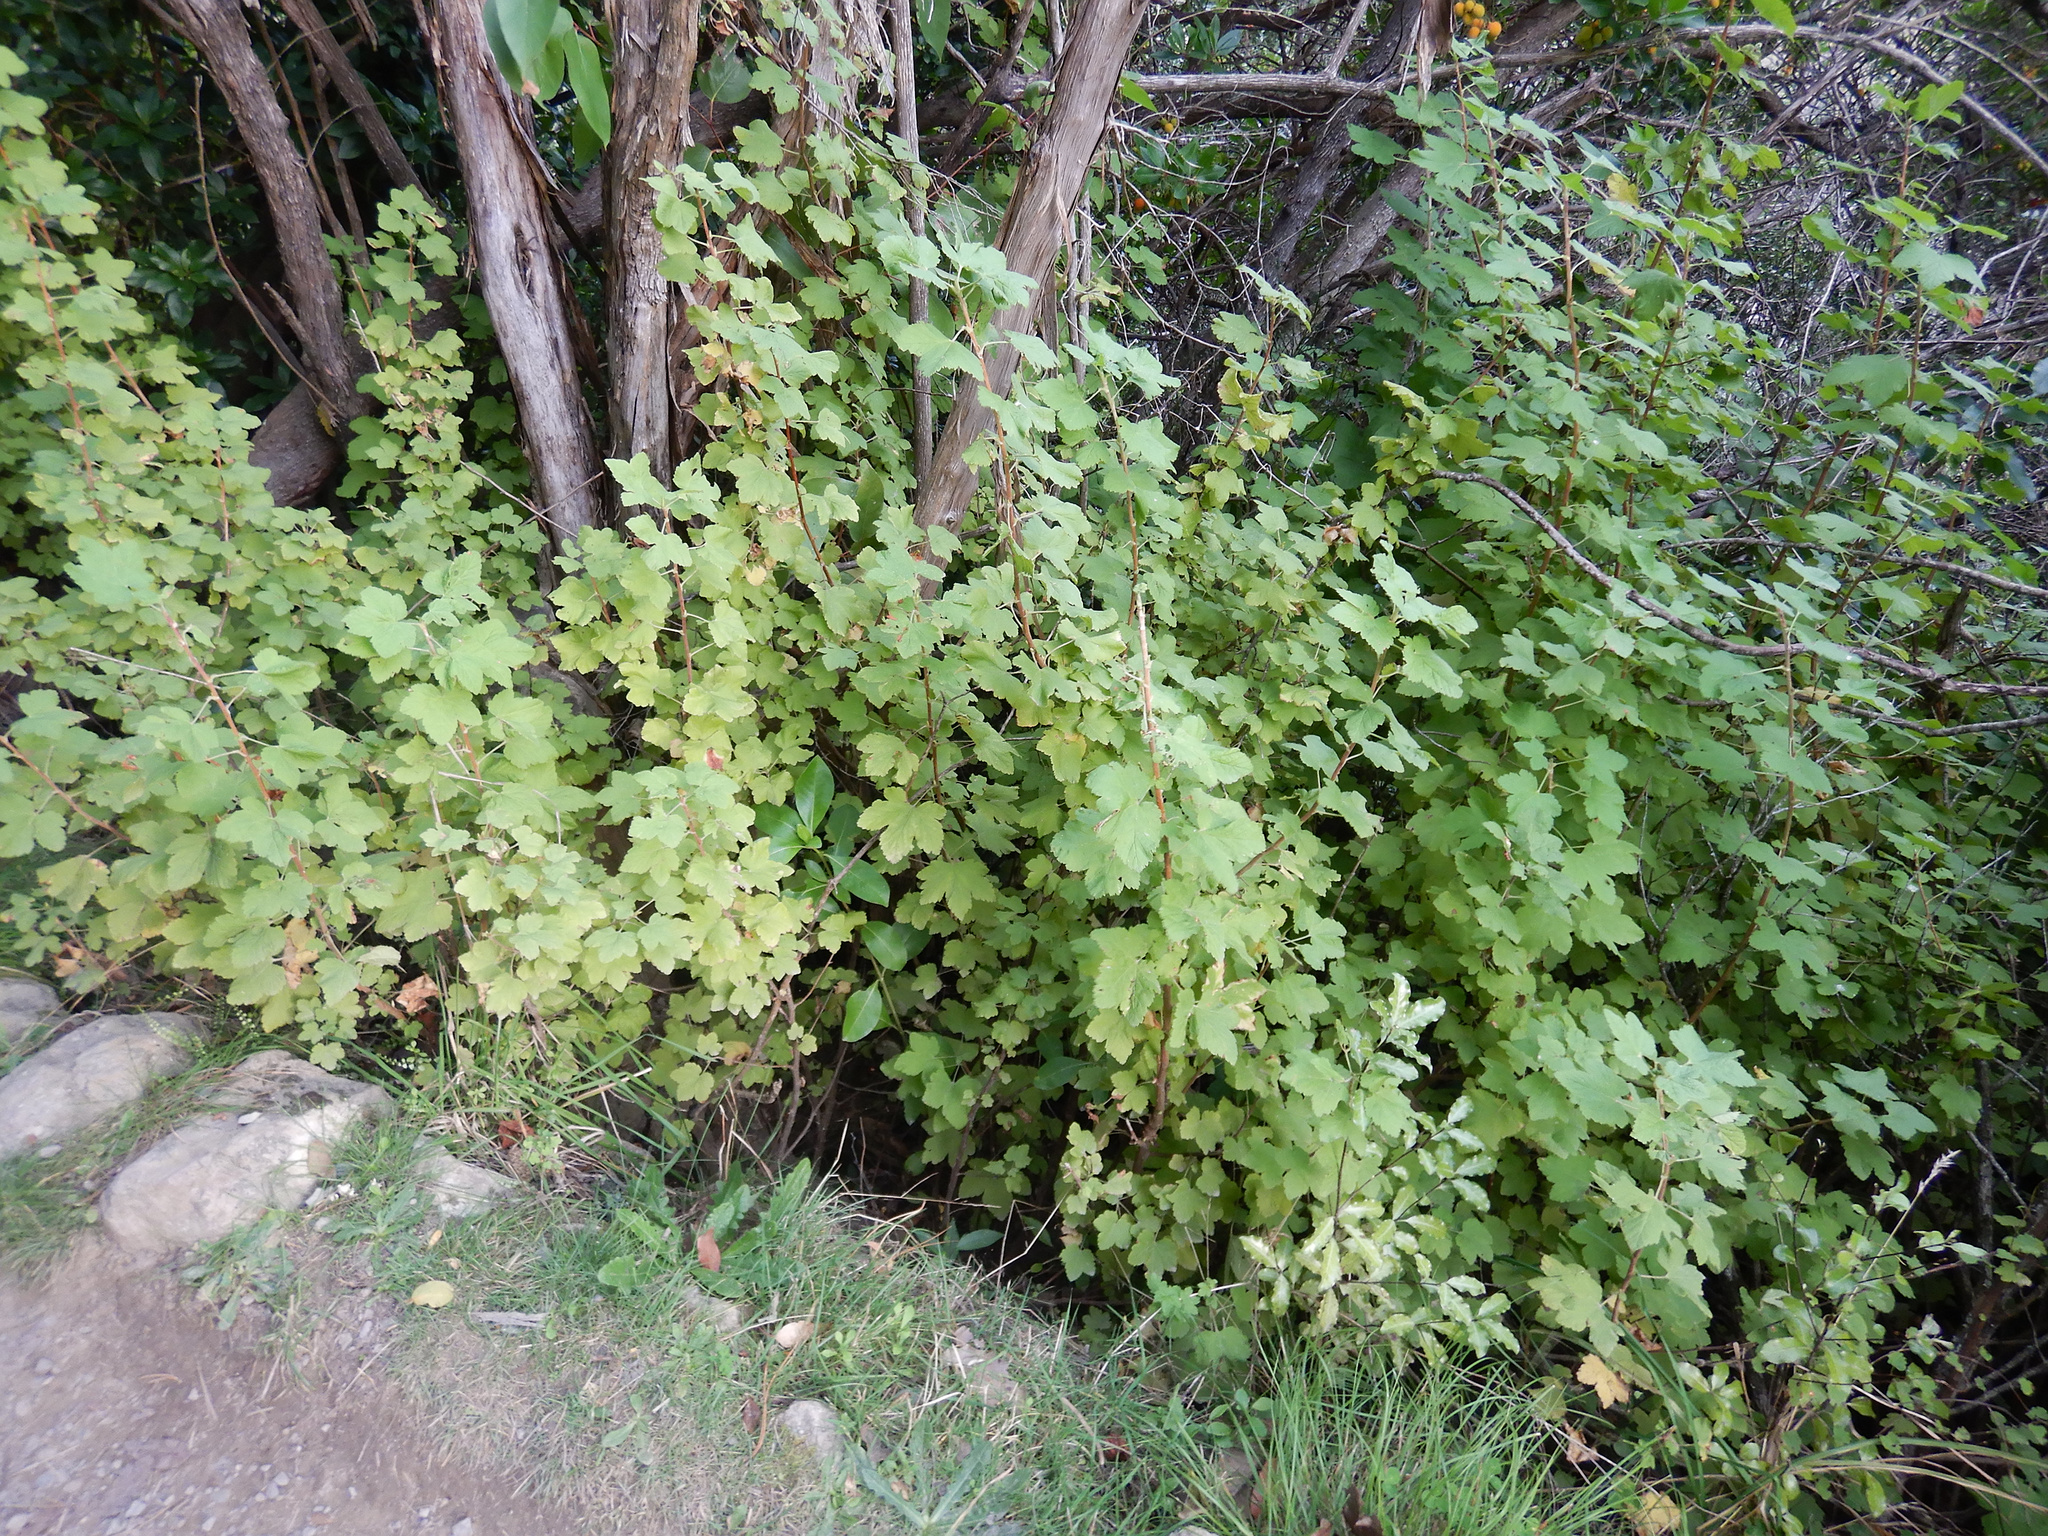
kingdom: Plantae
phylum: Tracheophyta
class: Magnoliopsida
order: Saxifragales
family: Grossulariaceae
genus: Ribes
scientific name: Ribes sanguineum
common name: Flowering currant
